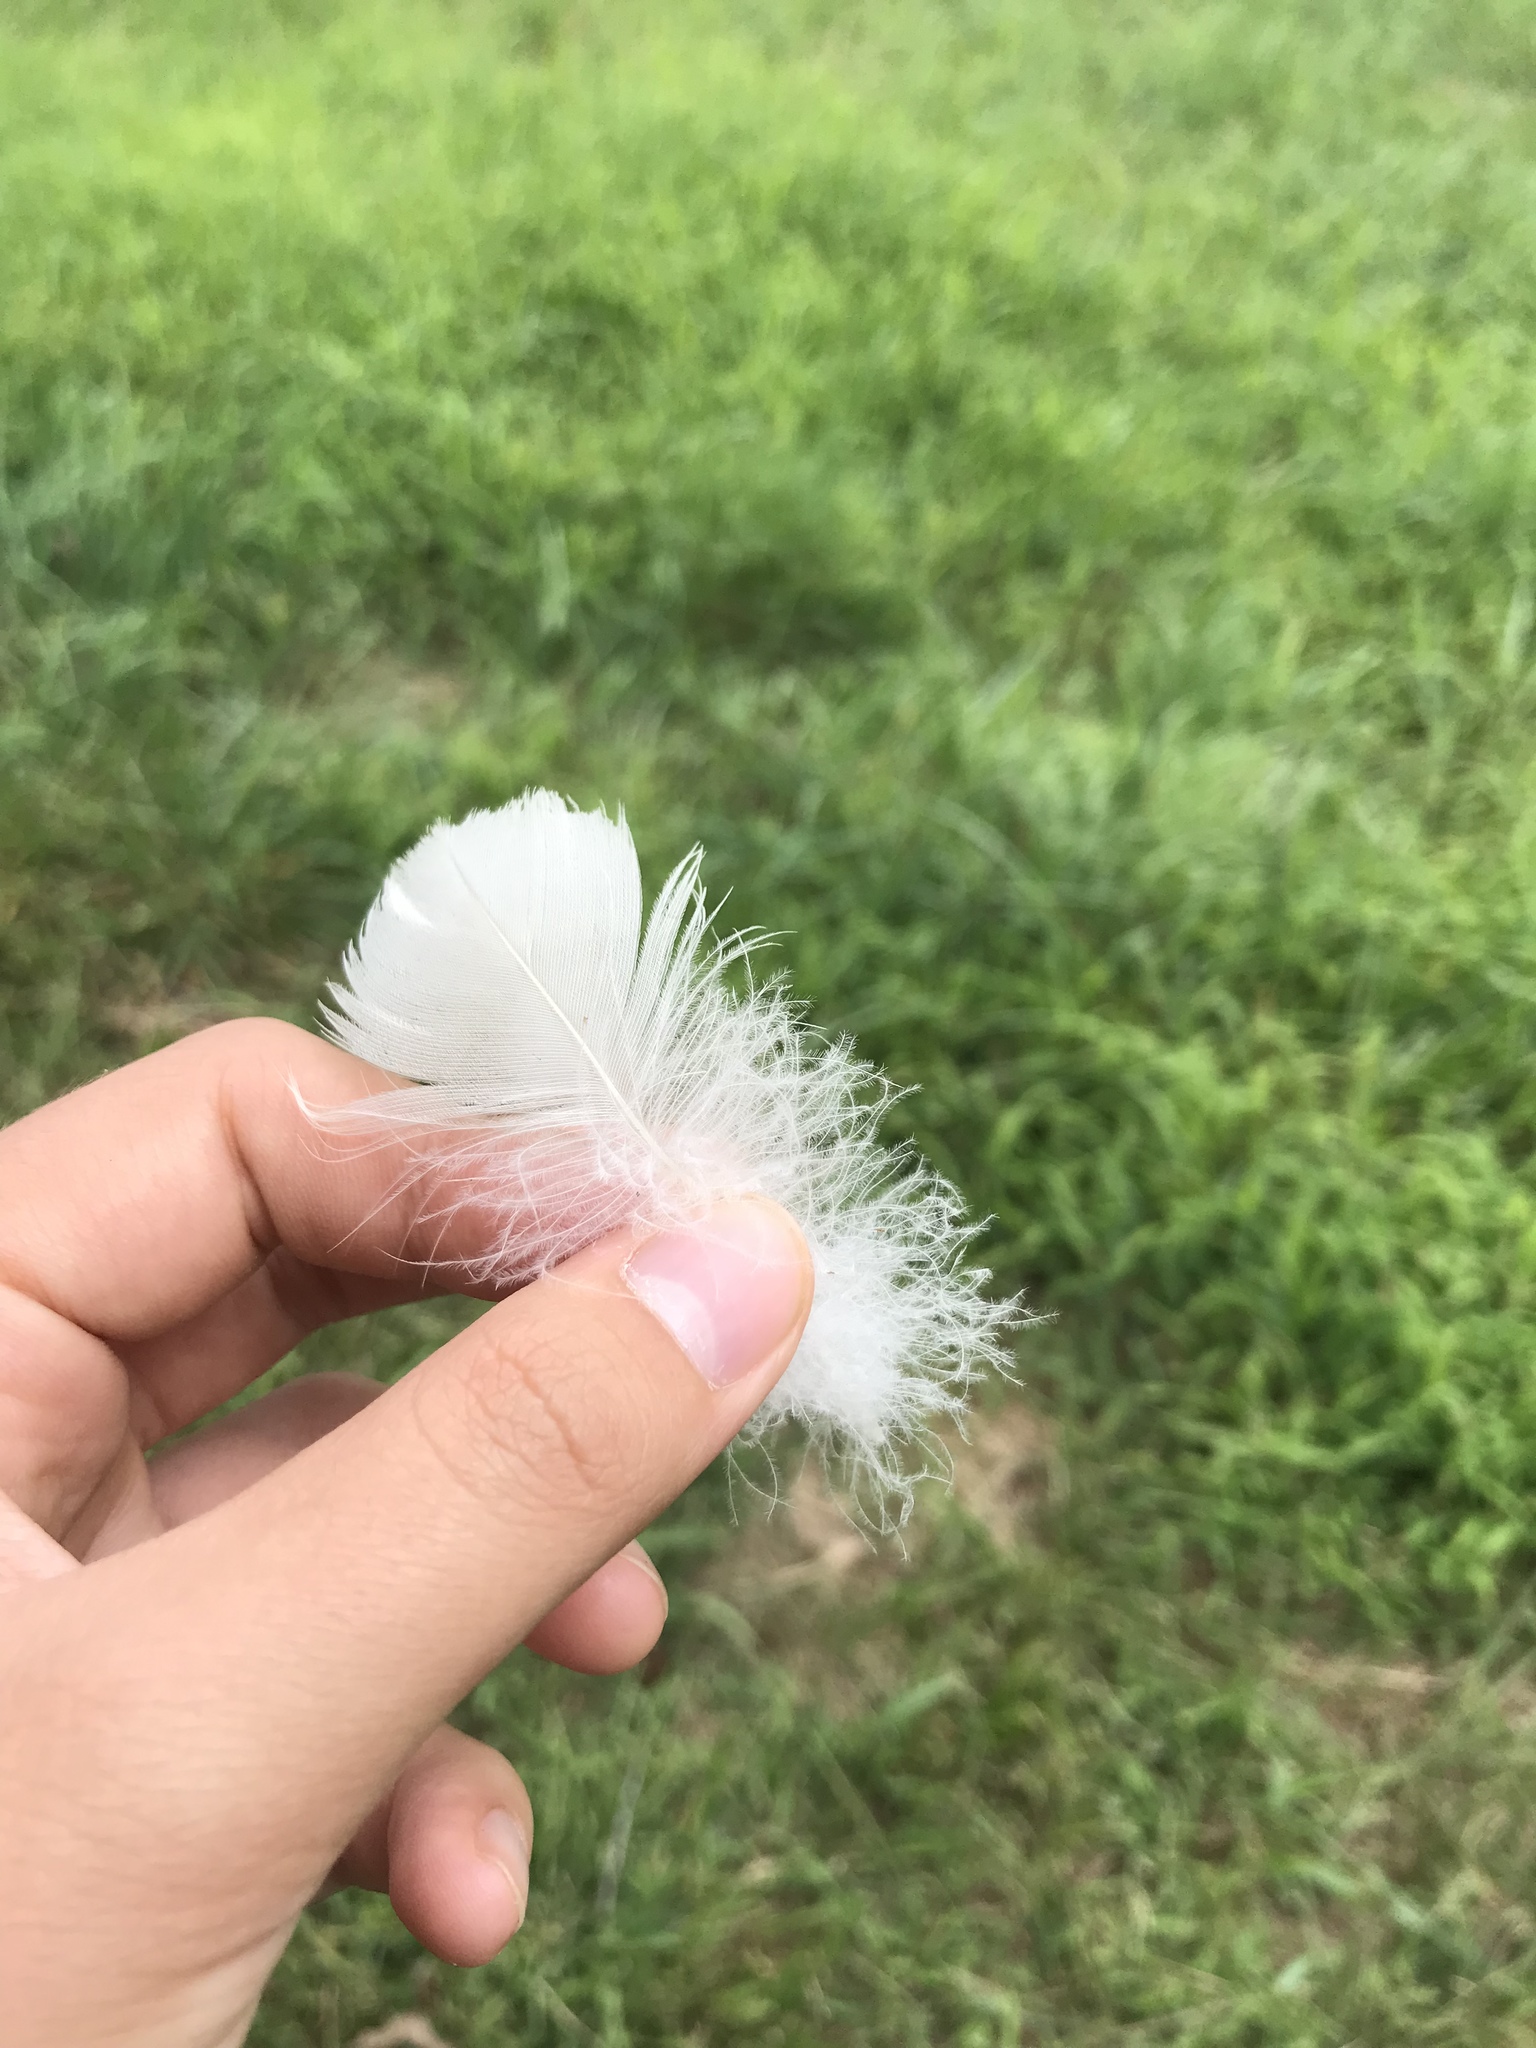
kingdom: Animalia
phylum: Chordata
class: Aves
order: Anseriformes
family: Anatidae
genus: Branta
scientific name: Branta canadensis
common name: Canada goose
